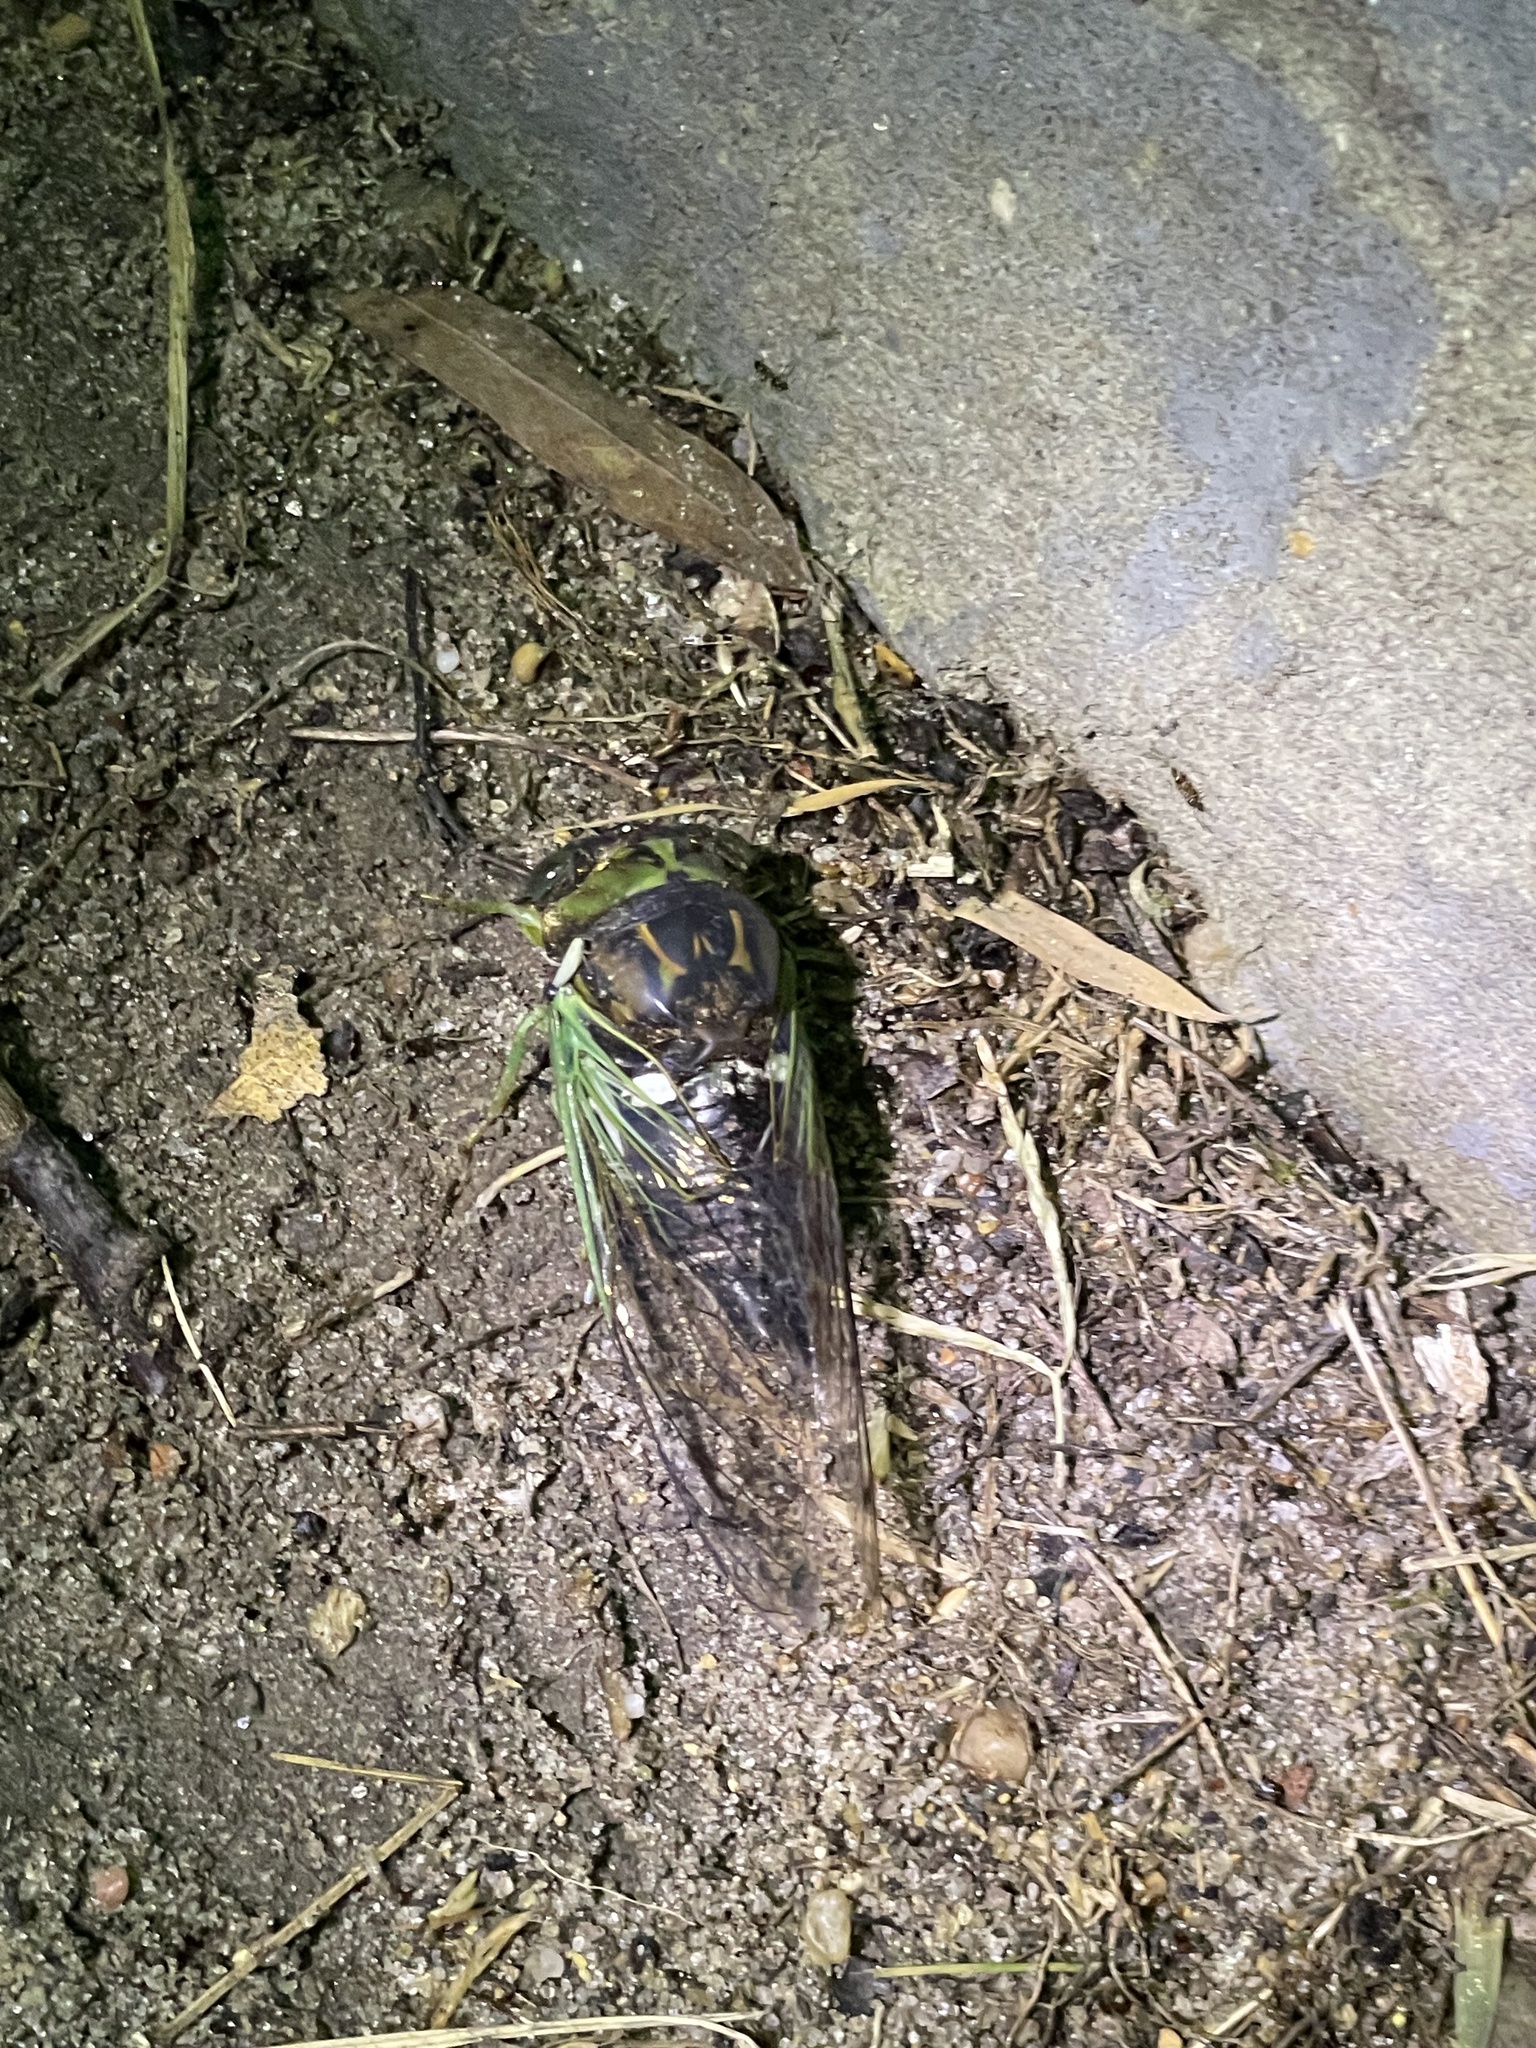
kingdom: Animalia
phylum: Arthropoda
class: Insecta
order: Hemiptera
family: Cicadidae
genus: Neotibicen
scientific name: Neotibicen tibicen
